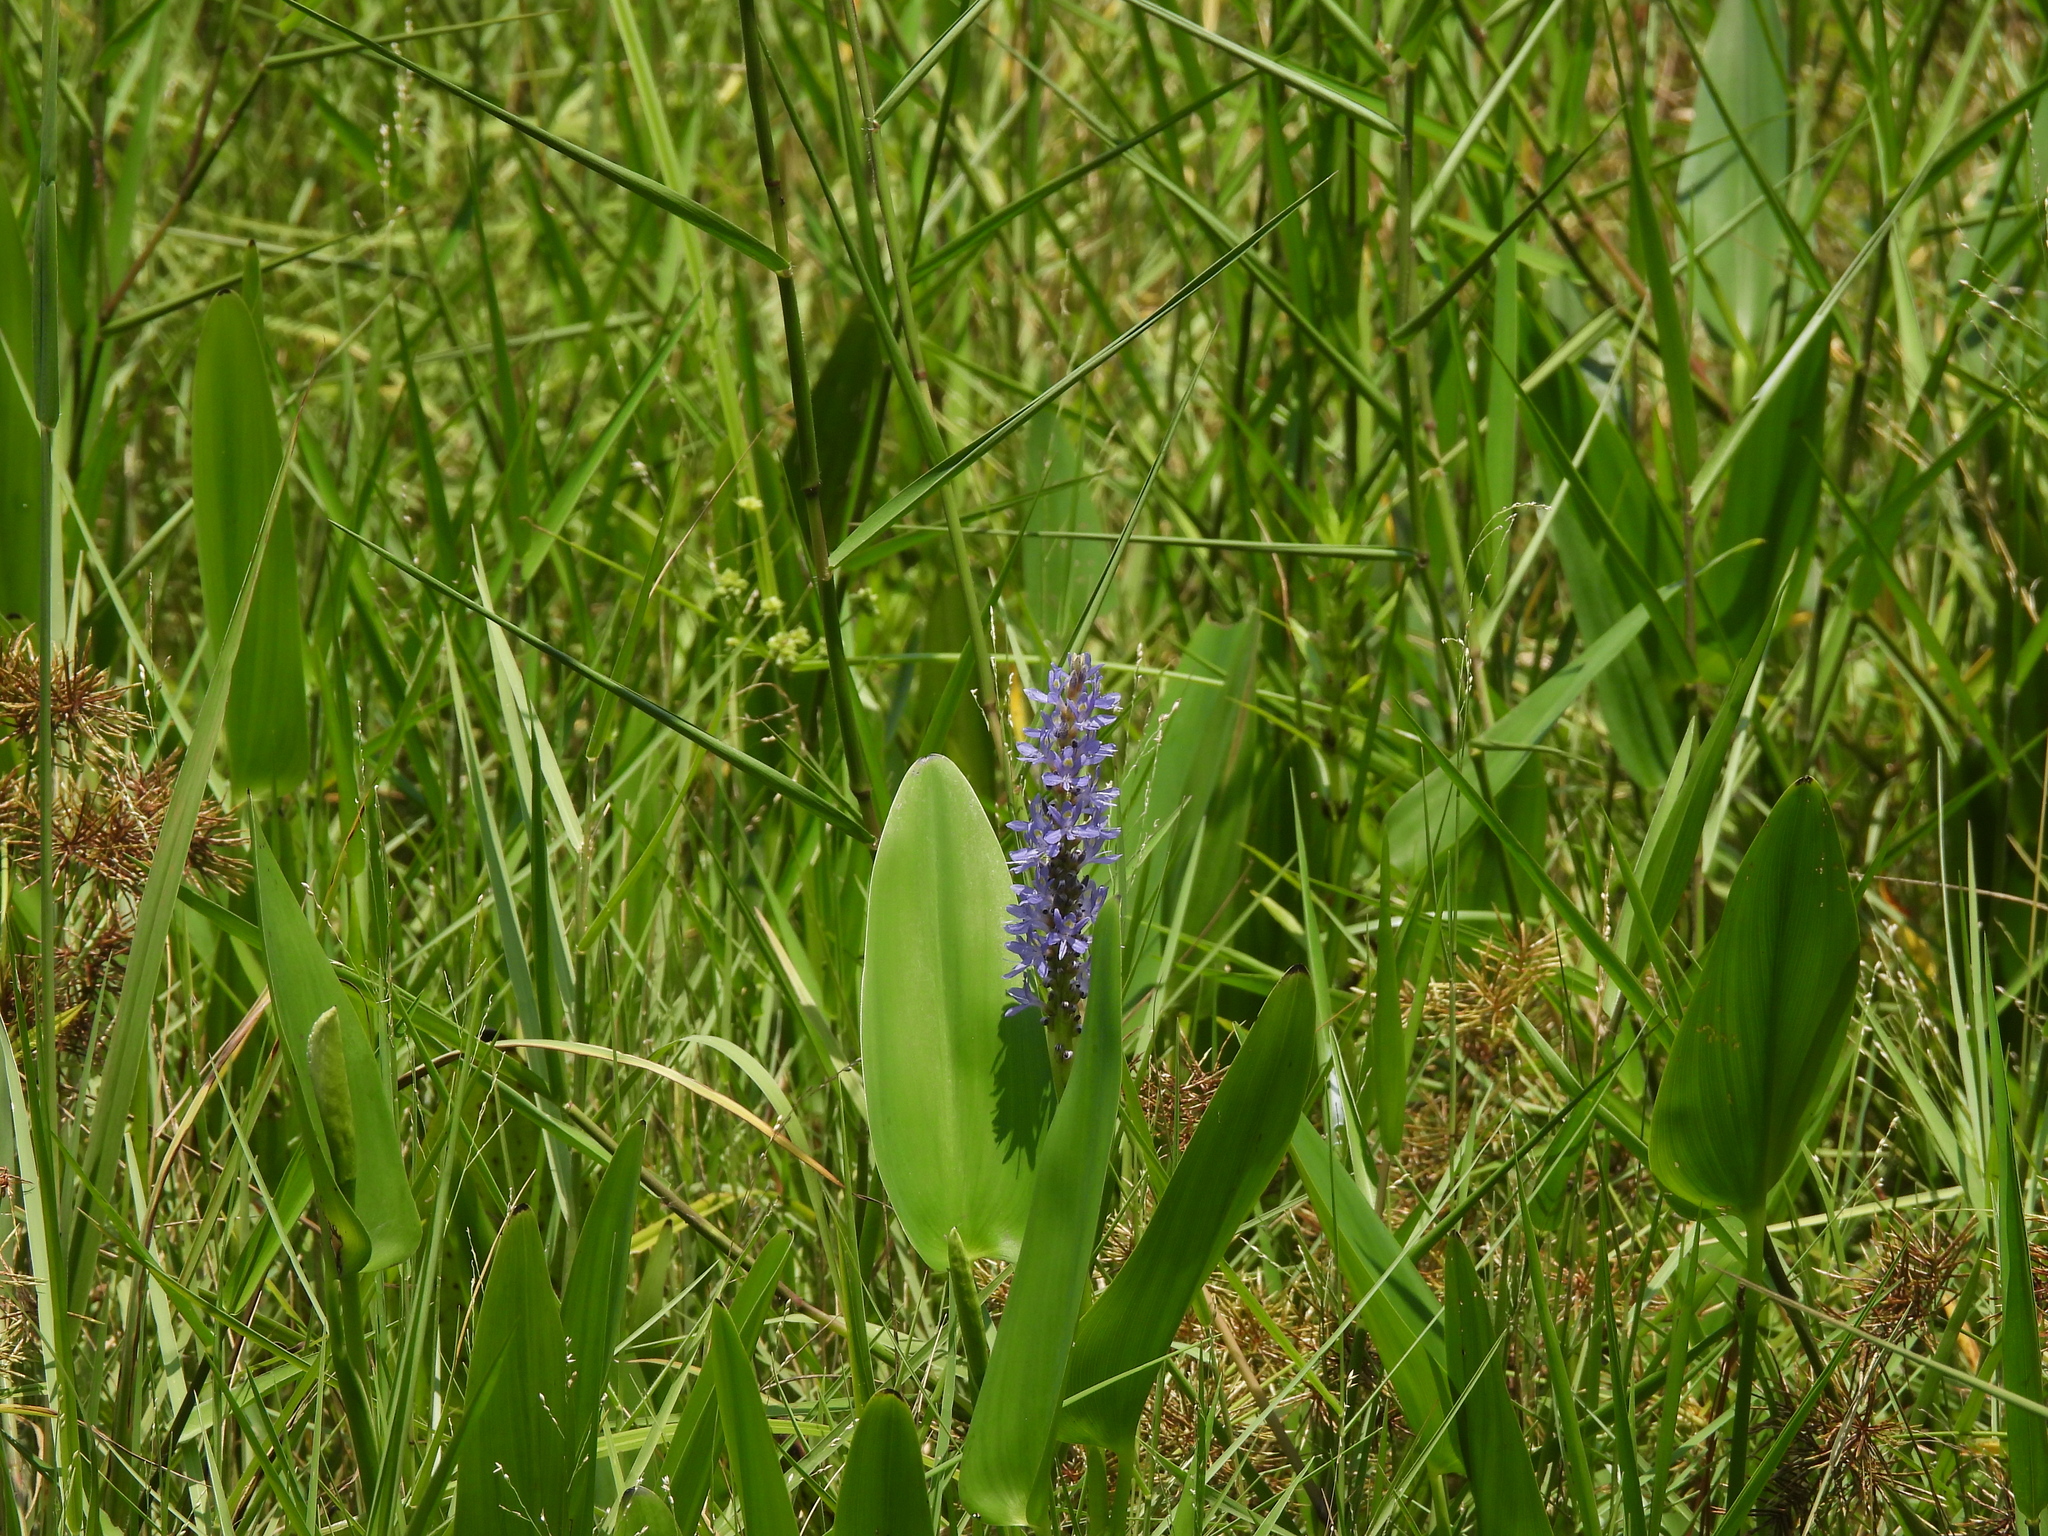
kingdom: Plantae
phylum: Tracheophyta
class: Liliopsida
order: Commelinales
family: Pontederiaceae
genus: Pontederia
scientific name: Pontederia cordata
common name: Pickerelweed
